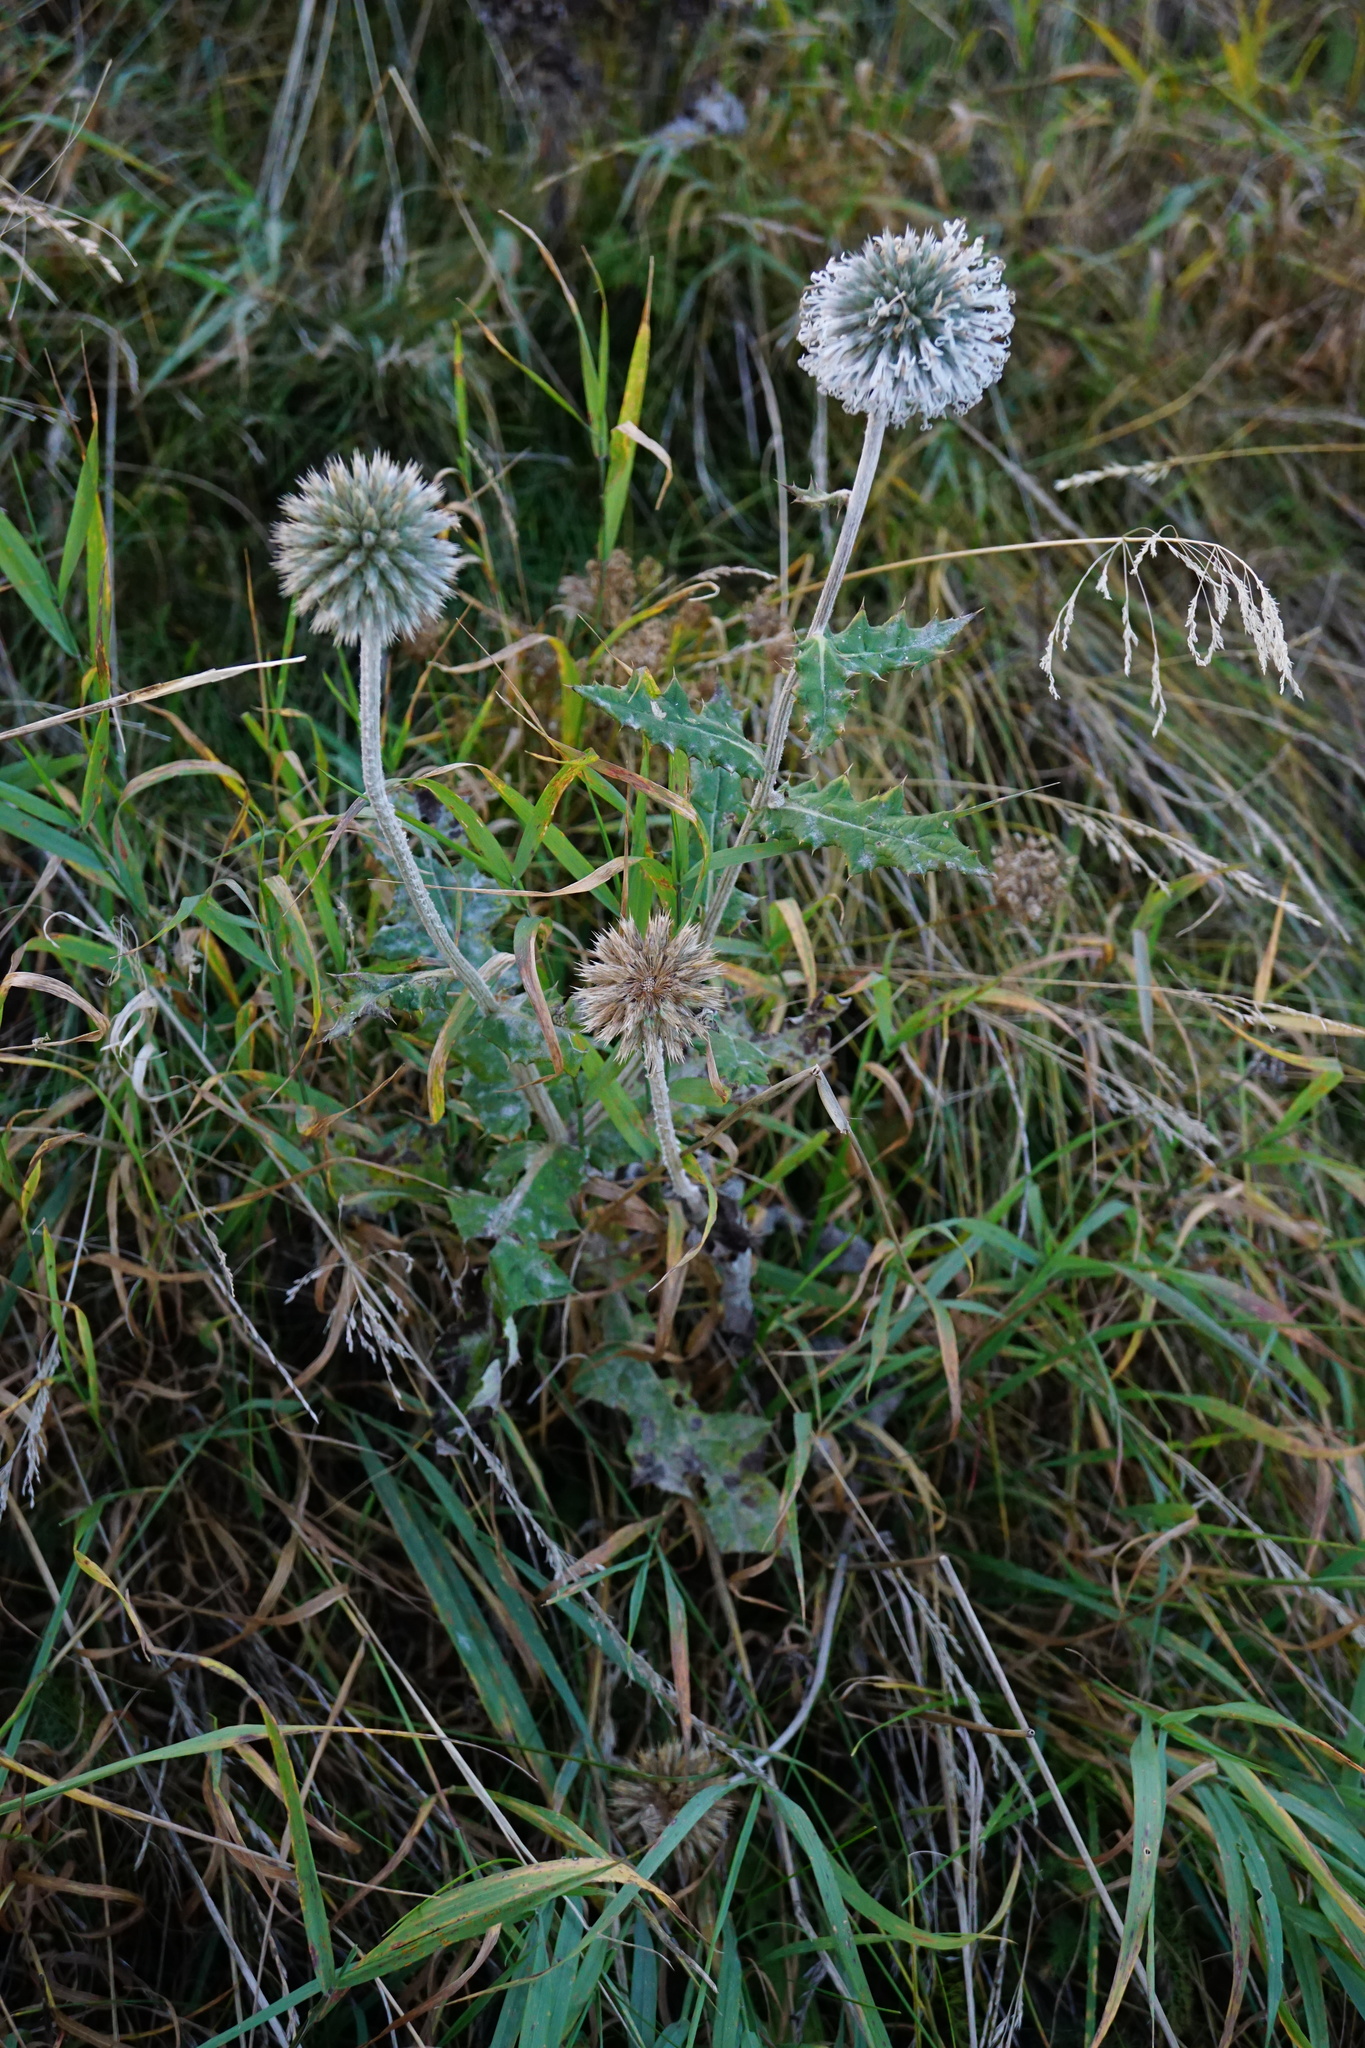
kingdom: Plantae
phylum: Tracheophyta
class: Magnoliopsida
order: Asterales
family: Asteraceae
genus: Echinops
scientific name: Echinops sphaerocephalus
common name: Glandular globe-thistle
